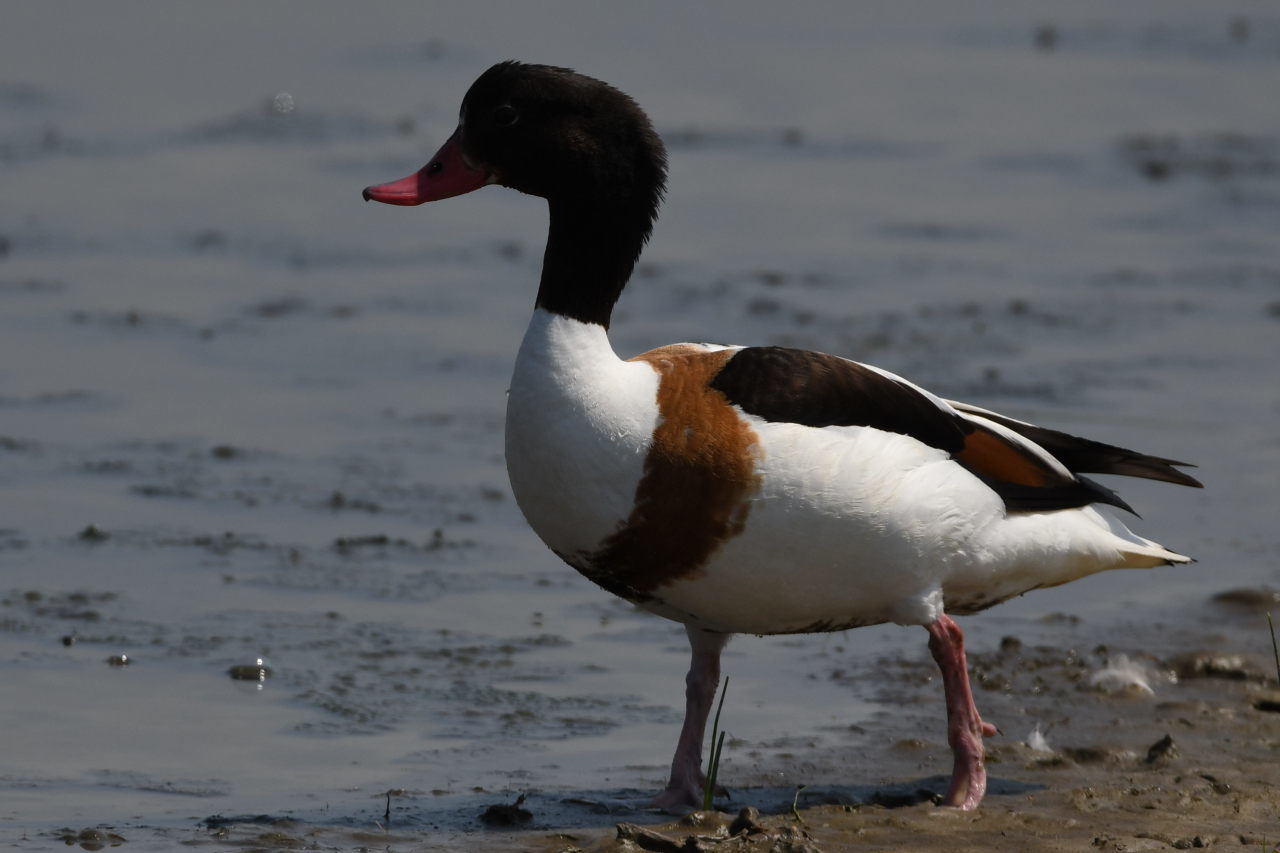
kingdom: Animalia
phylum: Chordata
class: Aves
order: Anseriformes
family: Anatidae
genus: Tadorna
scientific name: Tadorna tadorna
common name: Common shelduck
